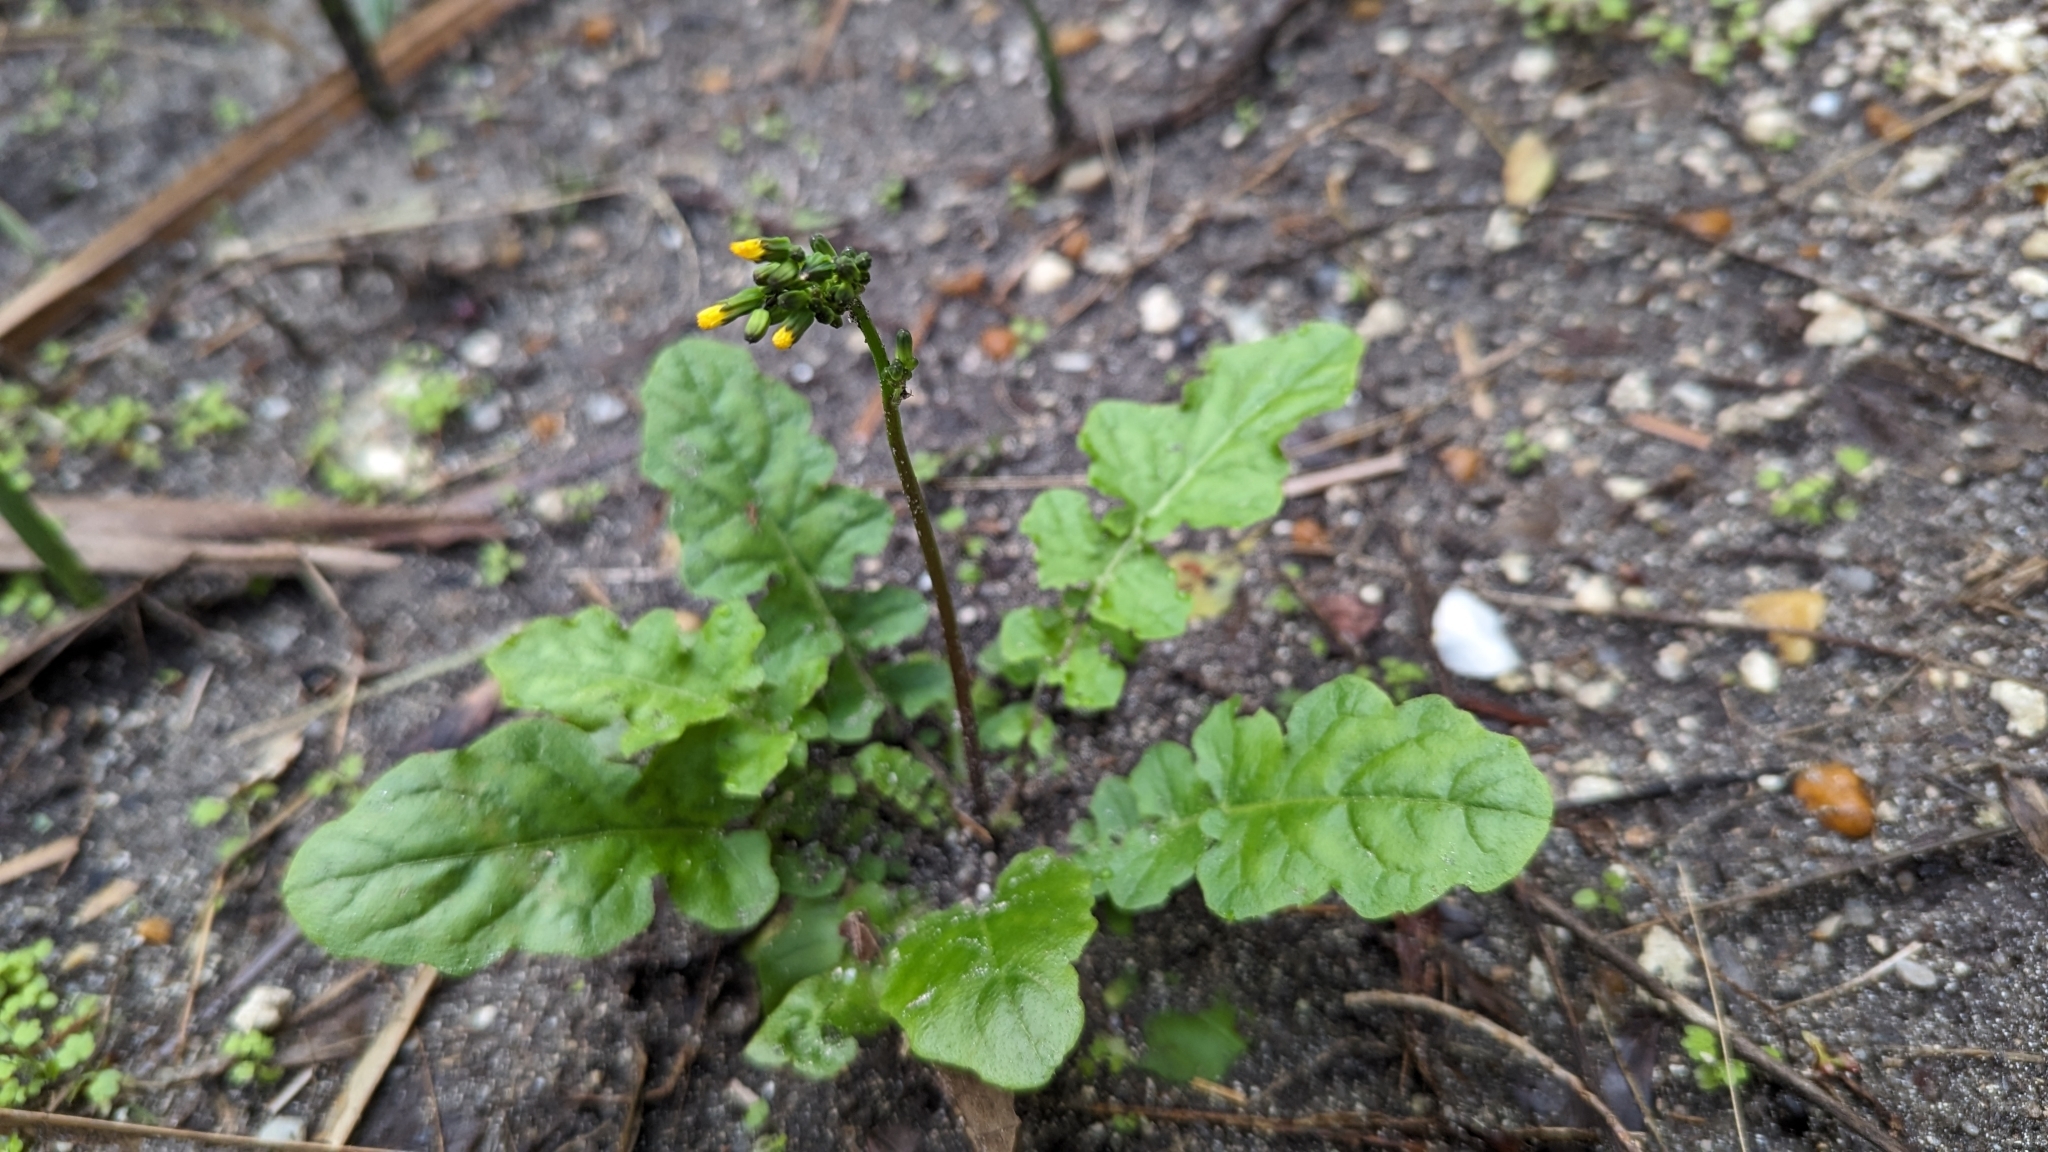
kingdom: Plantae
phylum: Tracheophyta
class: Magnoliopsida
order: Asterales
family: Asteraceae
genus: Youngia
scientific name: Youngia japonica
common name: Oriental false hawksbeard
